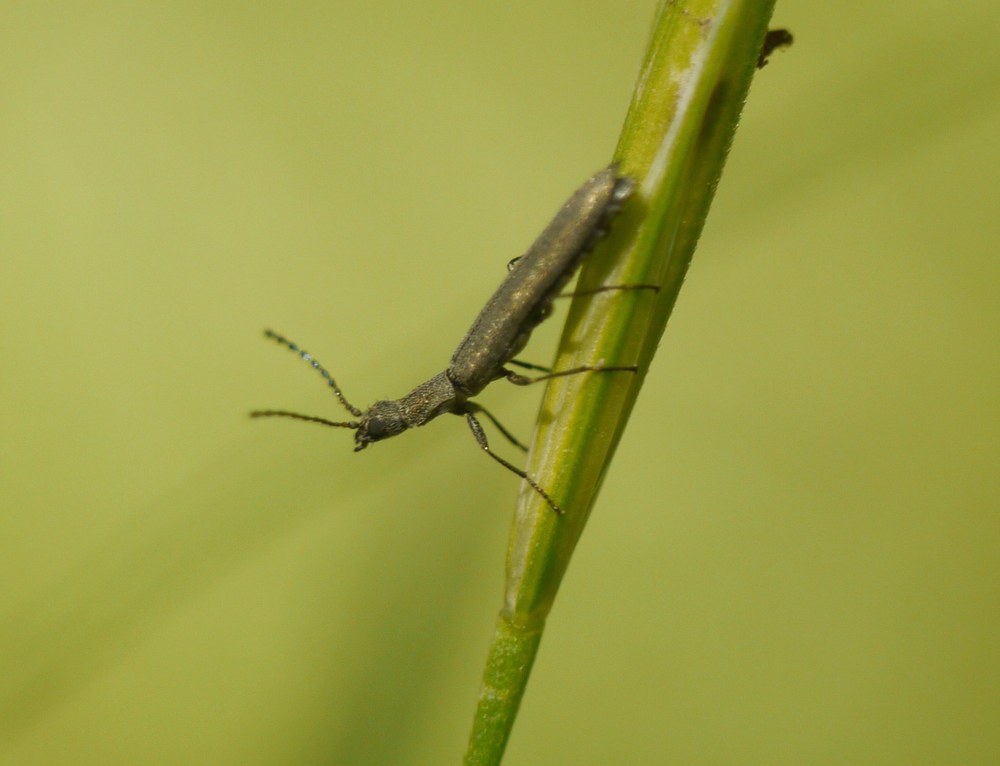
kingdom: Animalia
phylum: Arthropoda
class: Insecta
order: Coleoptera
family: Melyridae
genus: Dolichosoma
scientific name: Dolichosoma lineare
